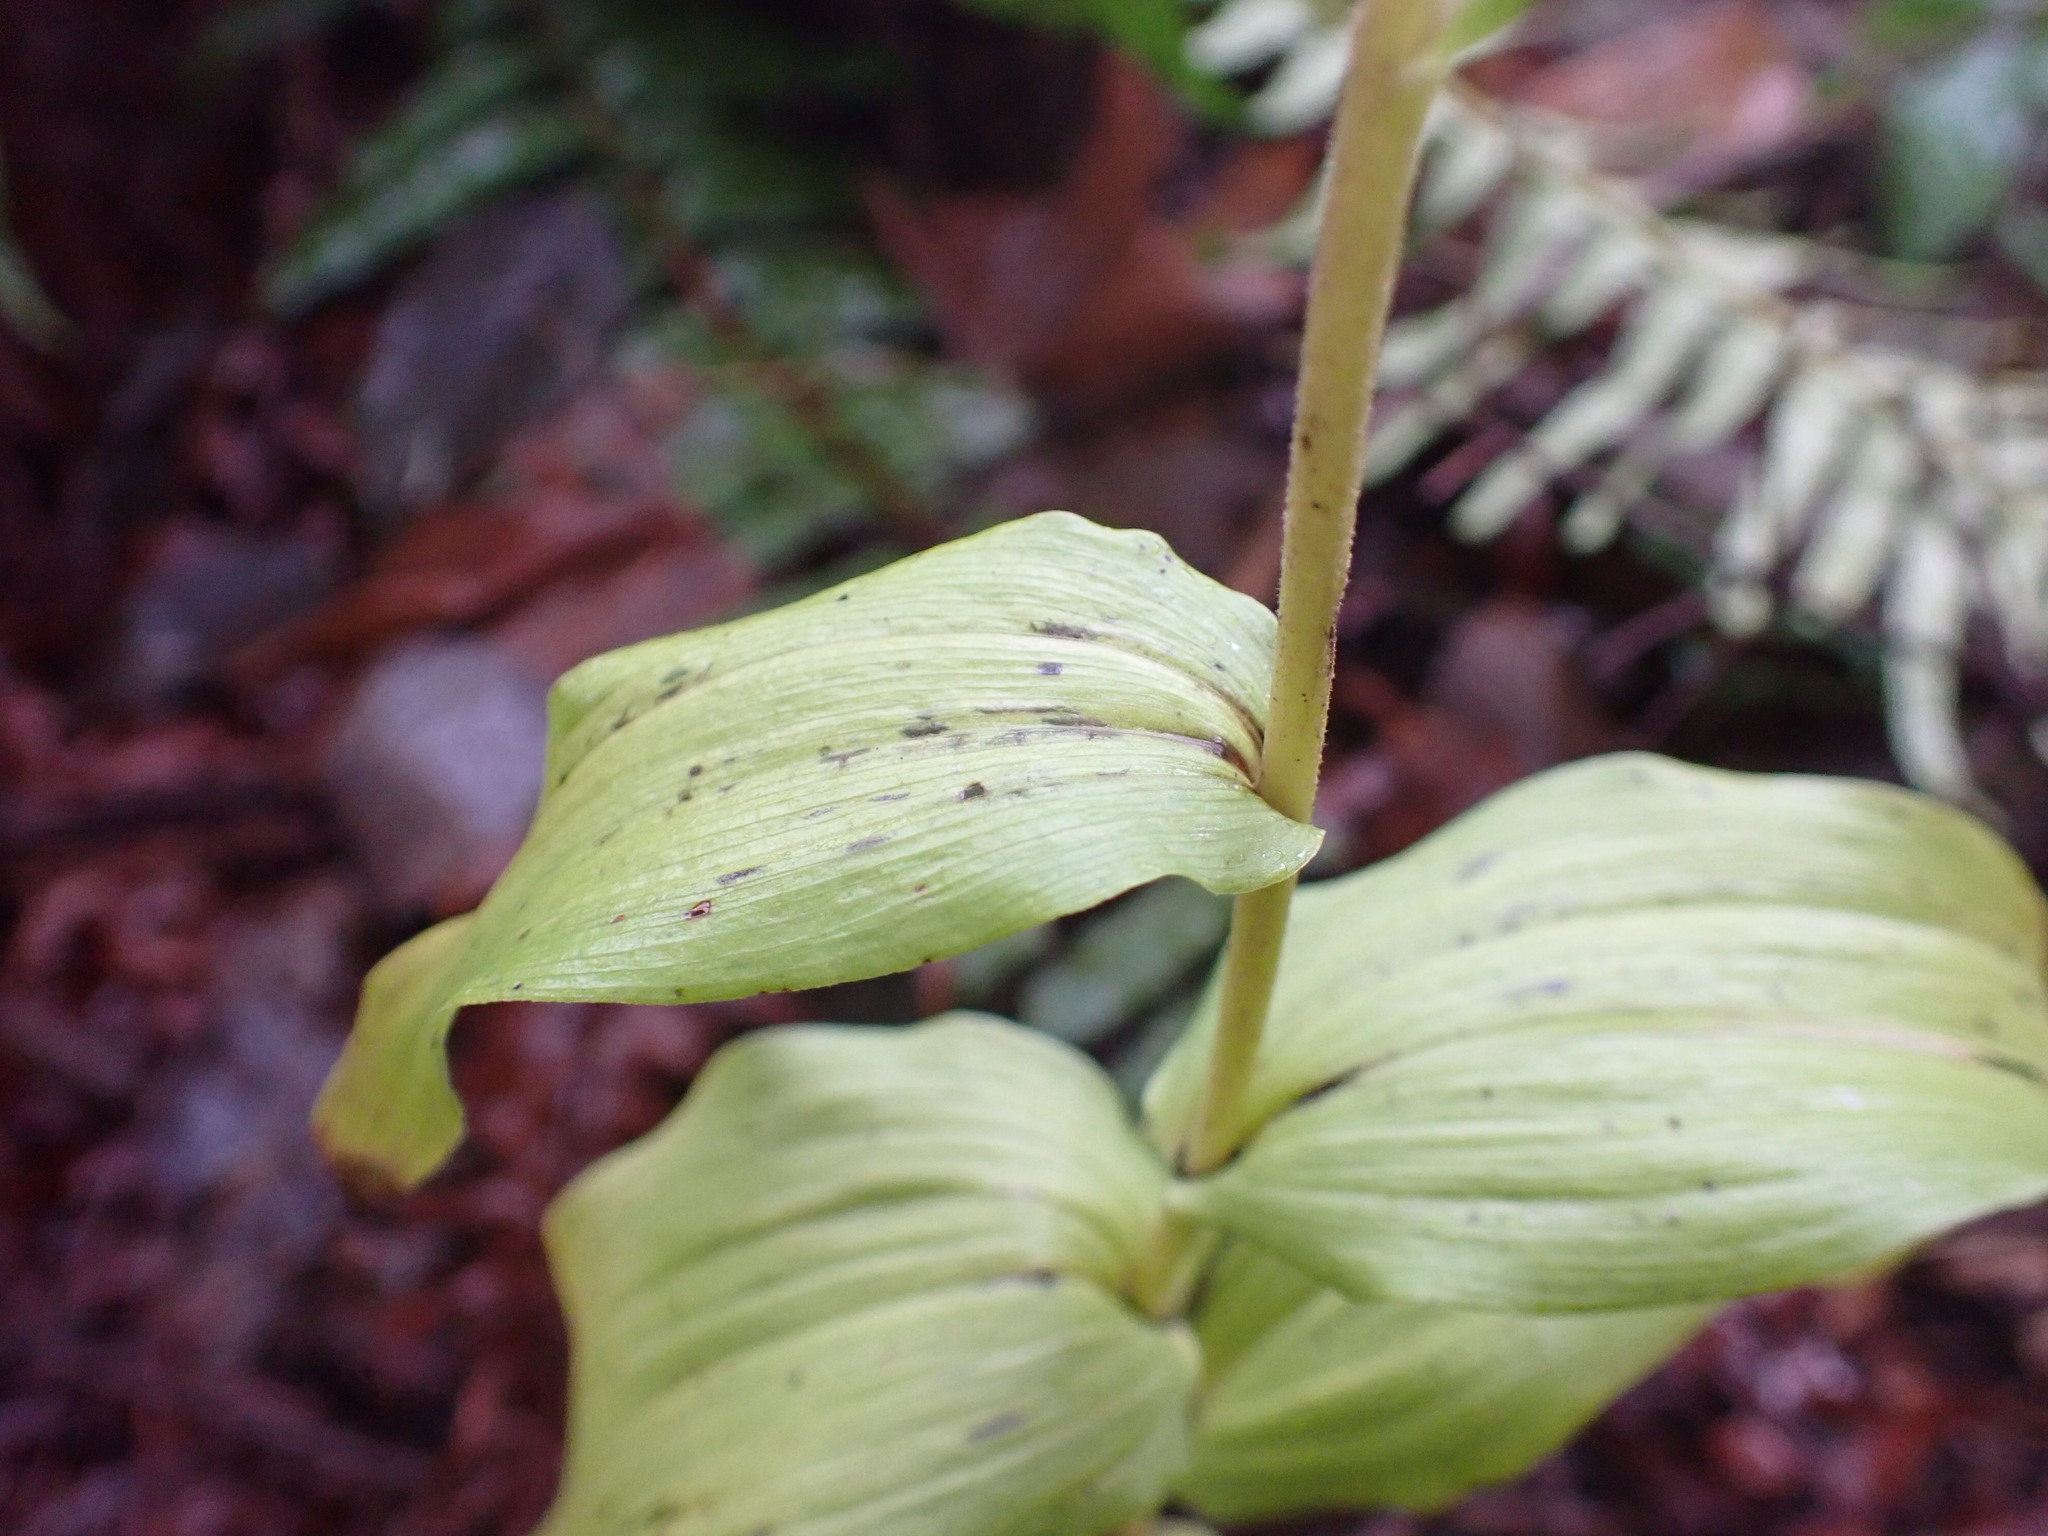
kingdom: Plantae
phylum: Tracheophyta
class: Liliopsida
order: Asparagales
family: Orchidaceae
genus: Epipactis
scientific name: Epipactis helleborine
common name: Broad-leaved helleborine
